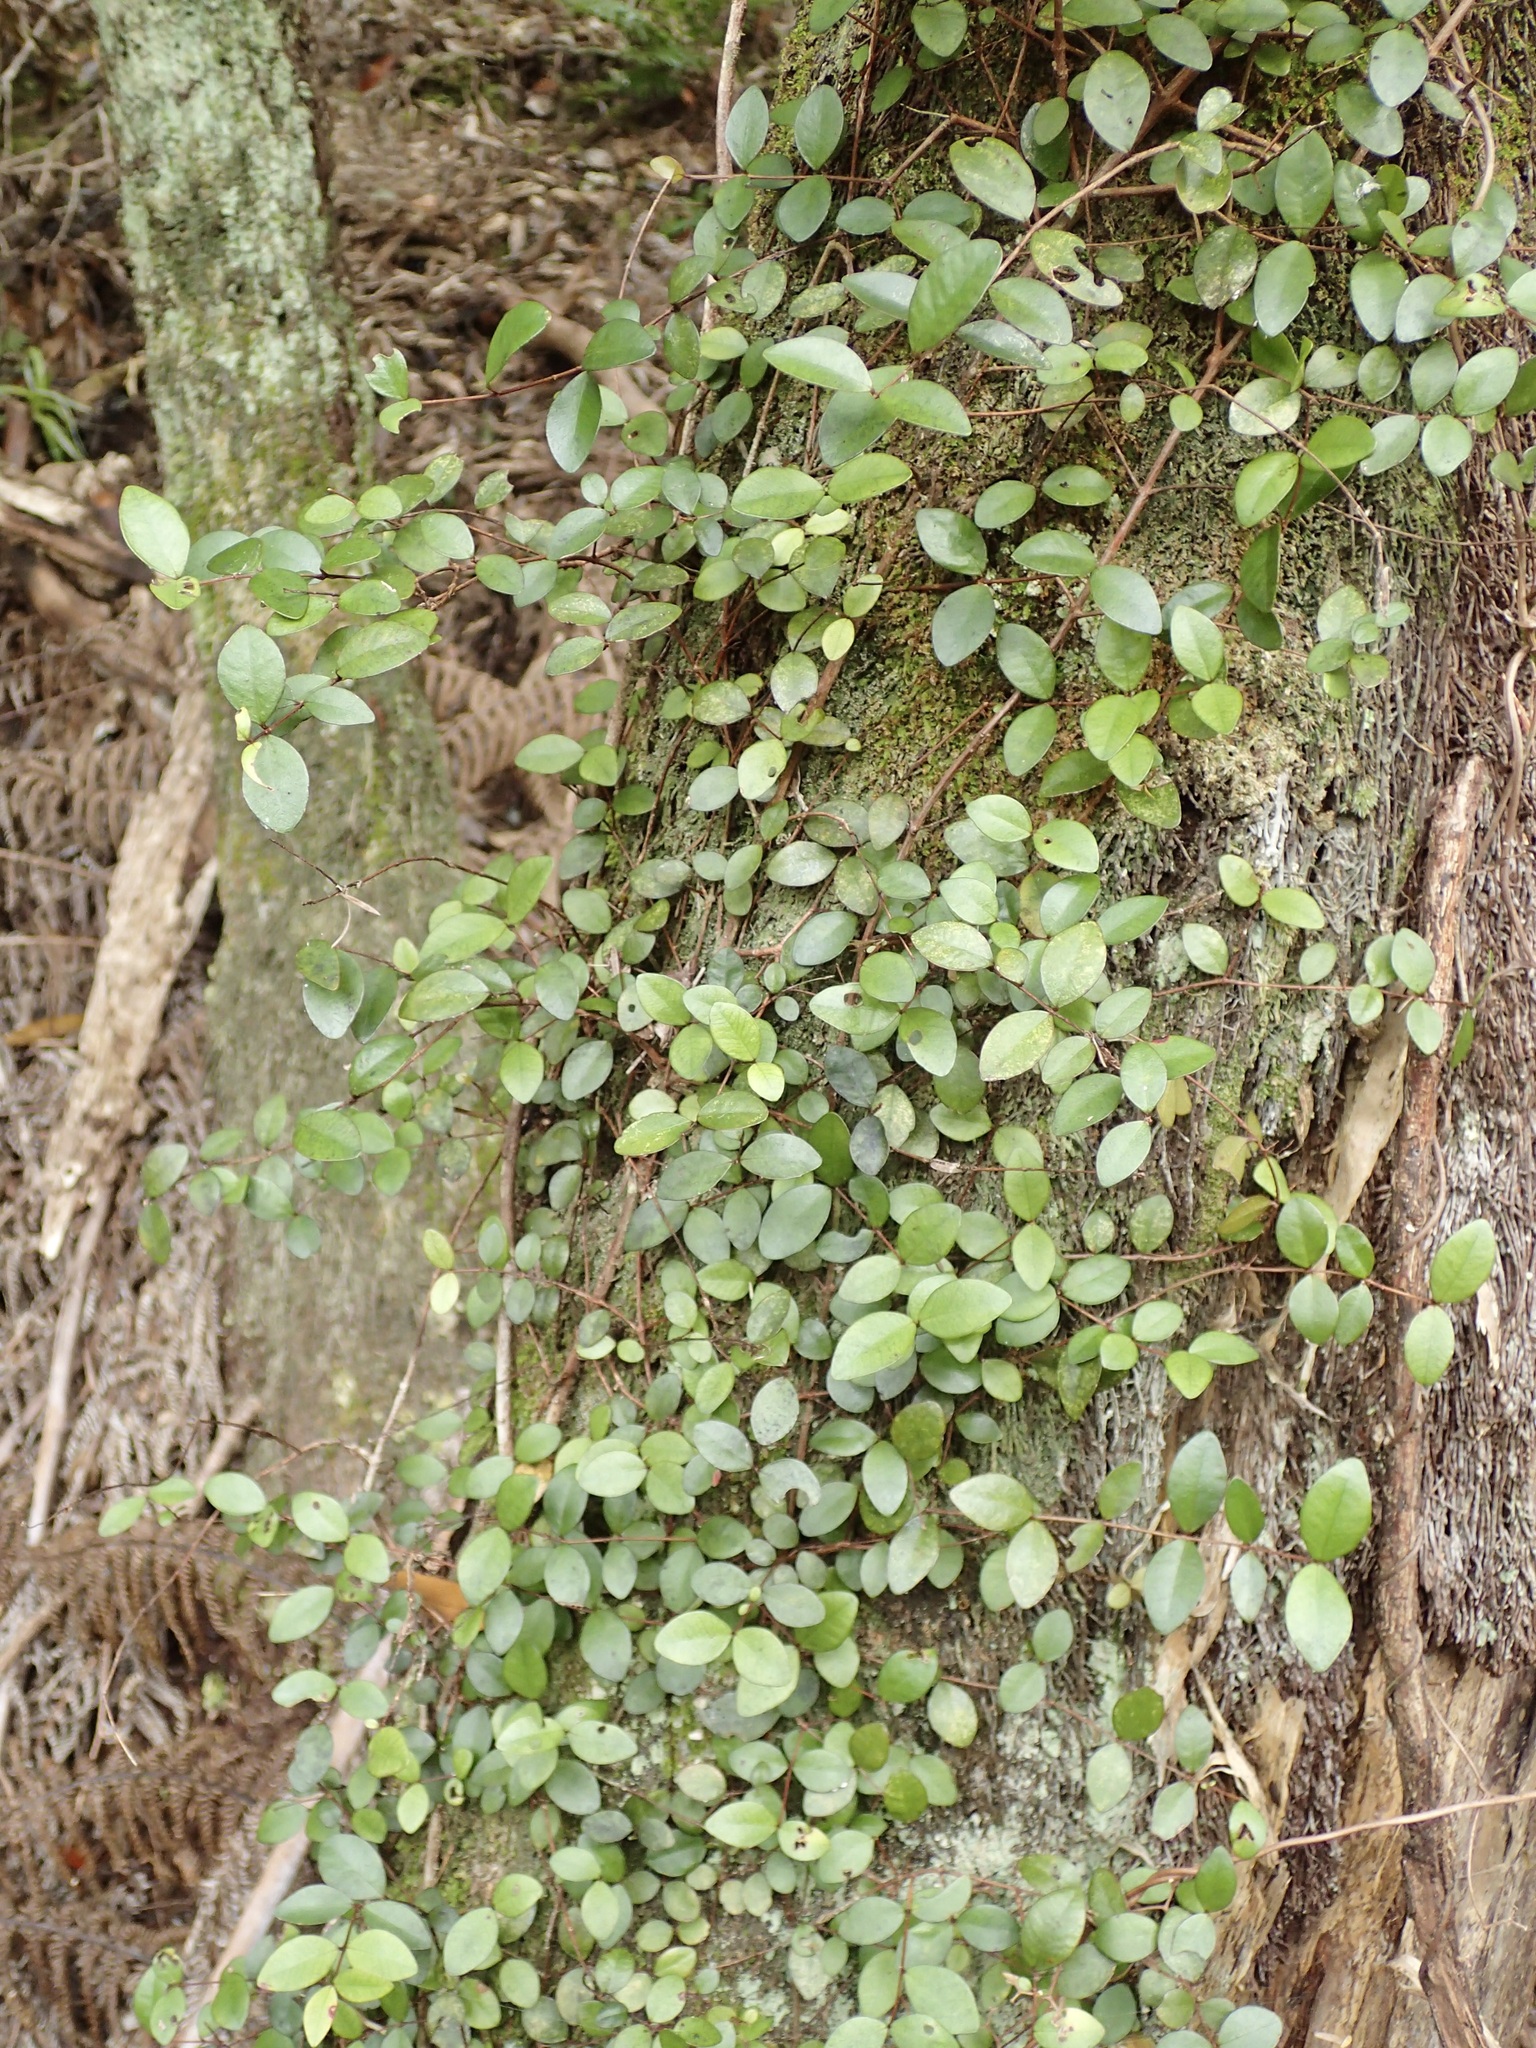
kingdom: Plantae
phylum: Tracheophyta
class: Magnoliopsida
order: Myrtales
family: Myrtaceae
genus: Metrosideros
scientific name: Metrosideros fulgens
